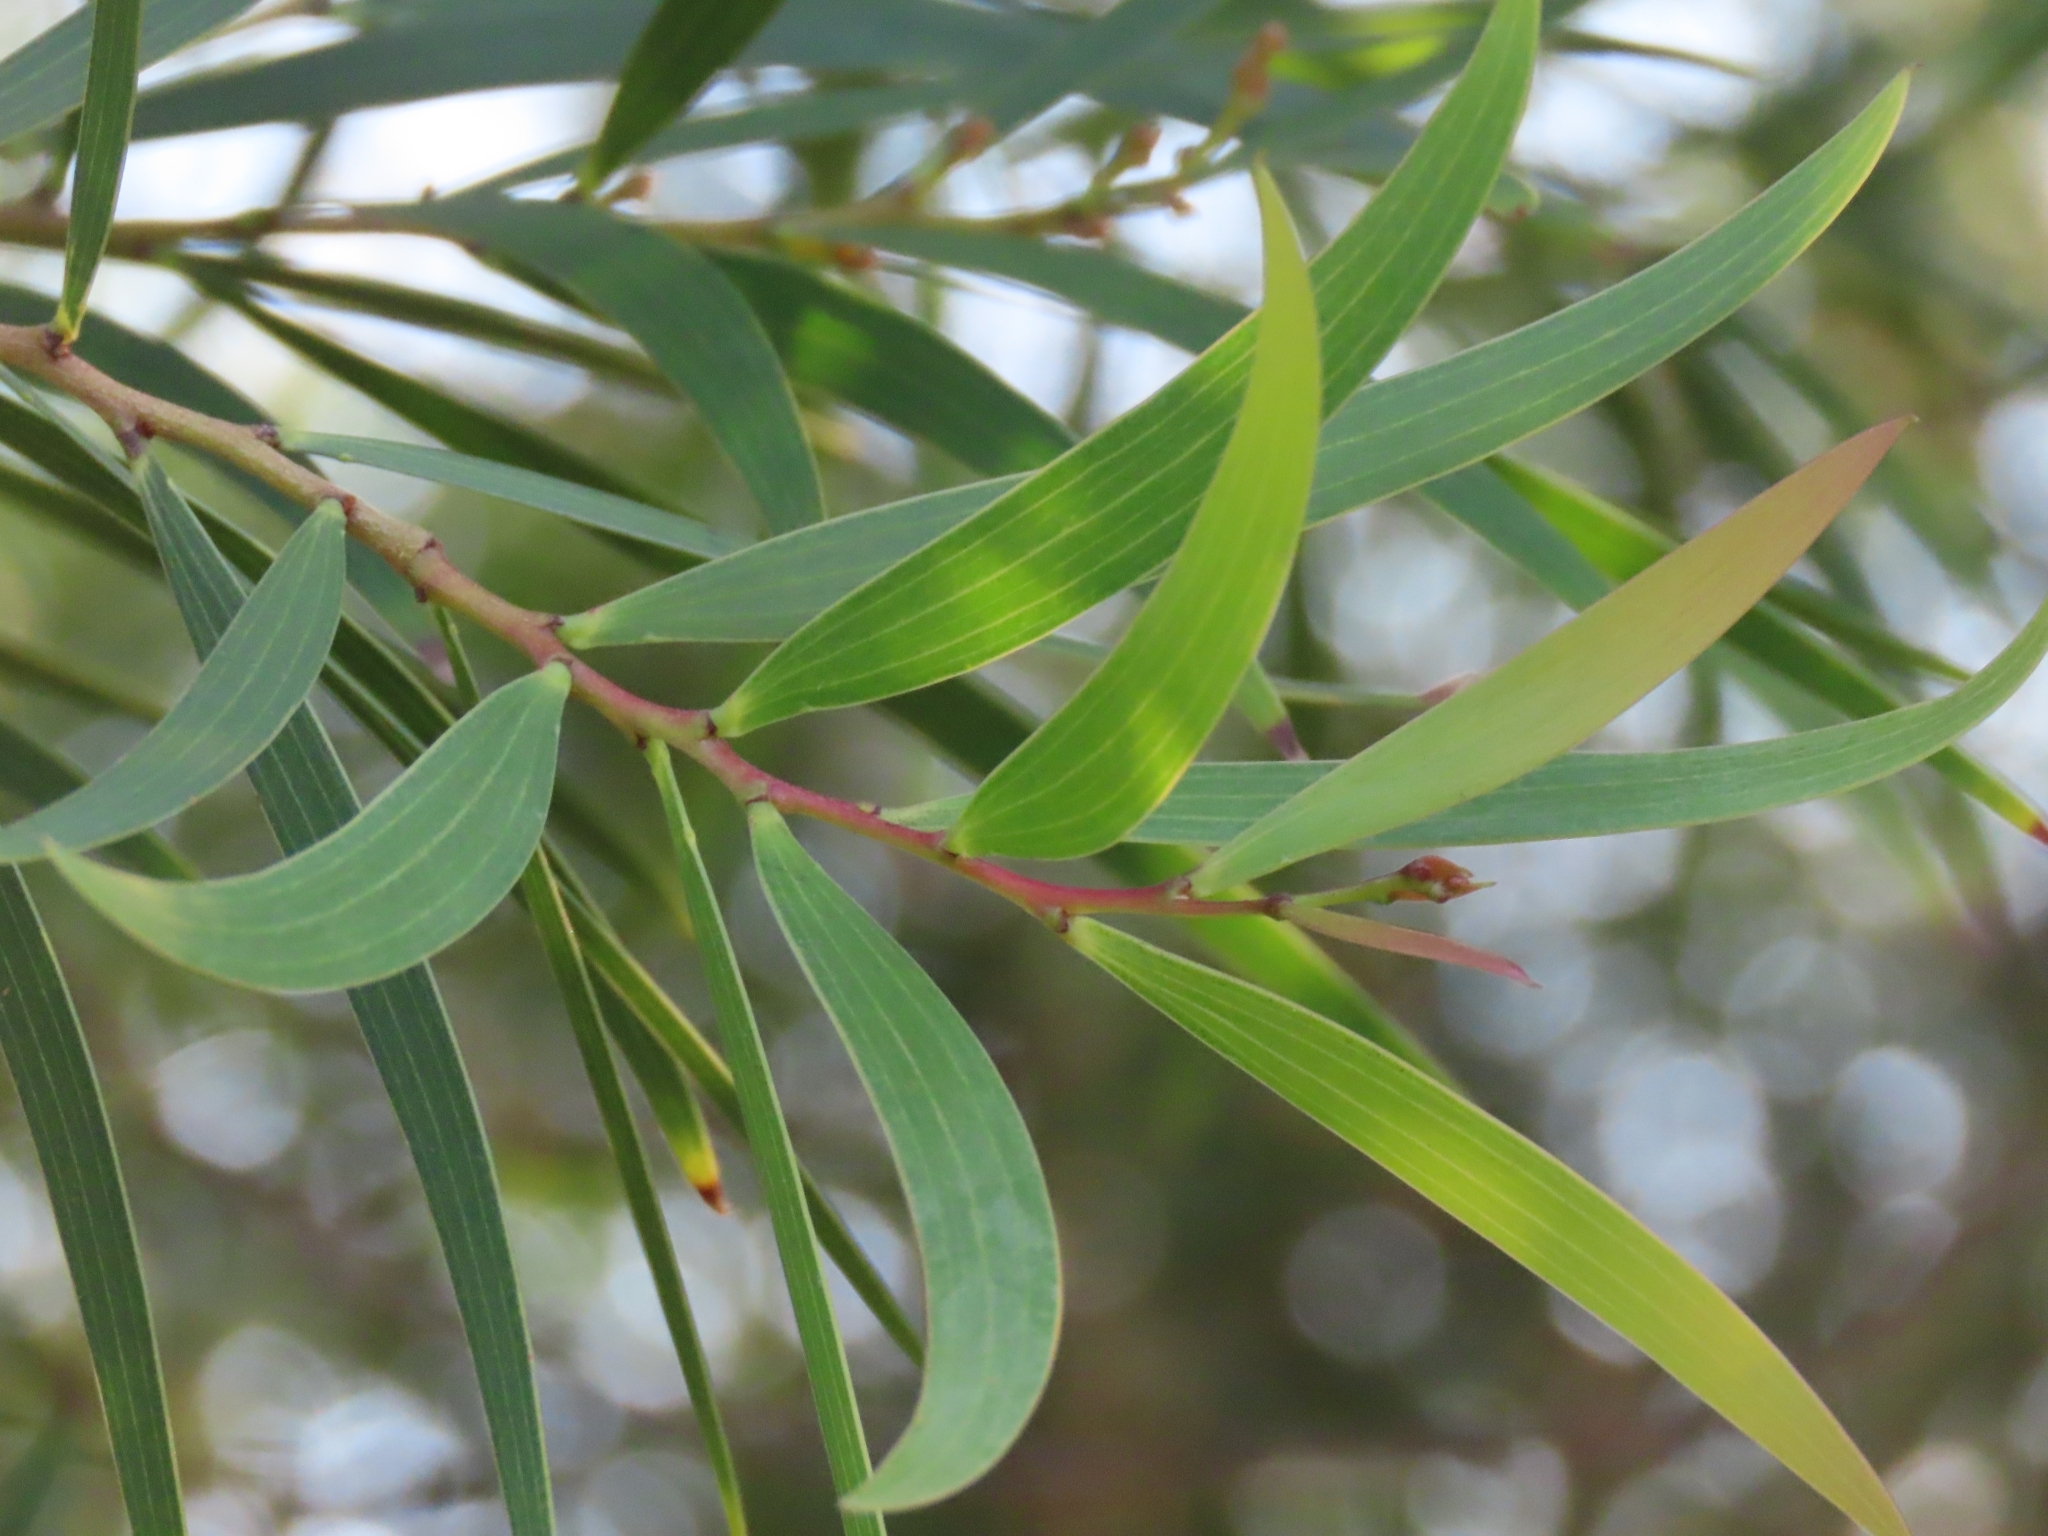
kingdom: Plantae
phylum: Tracheophyta
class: Magnoliopsida
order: Fabales
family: Fabaceae
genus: Acacia
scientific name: Acacia confusa
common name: Formosan koa
